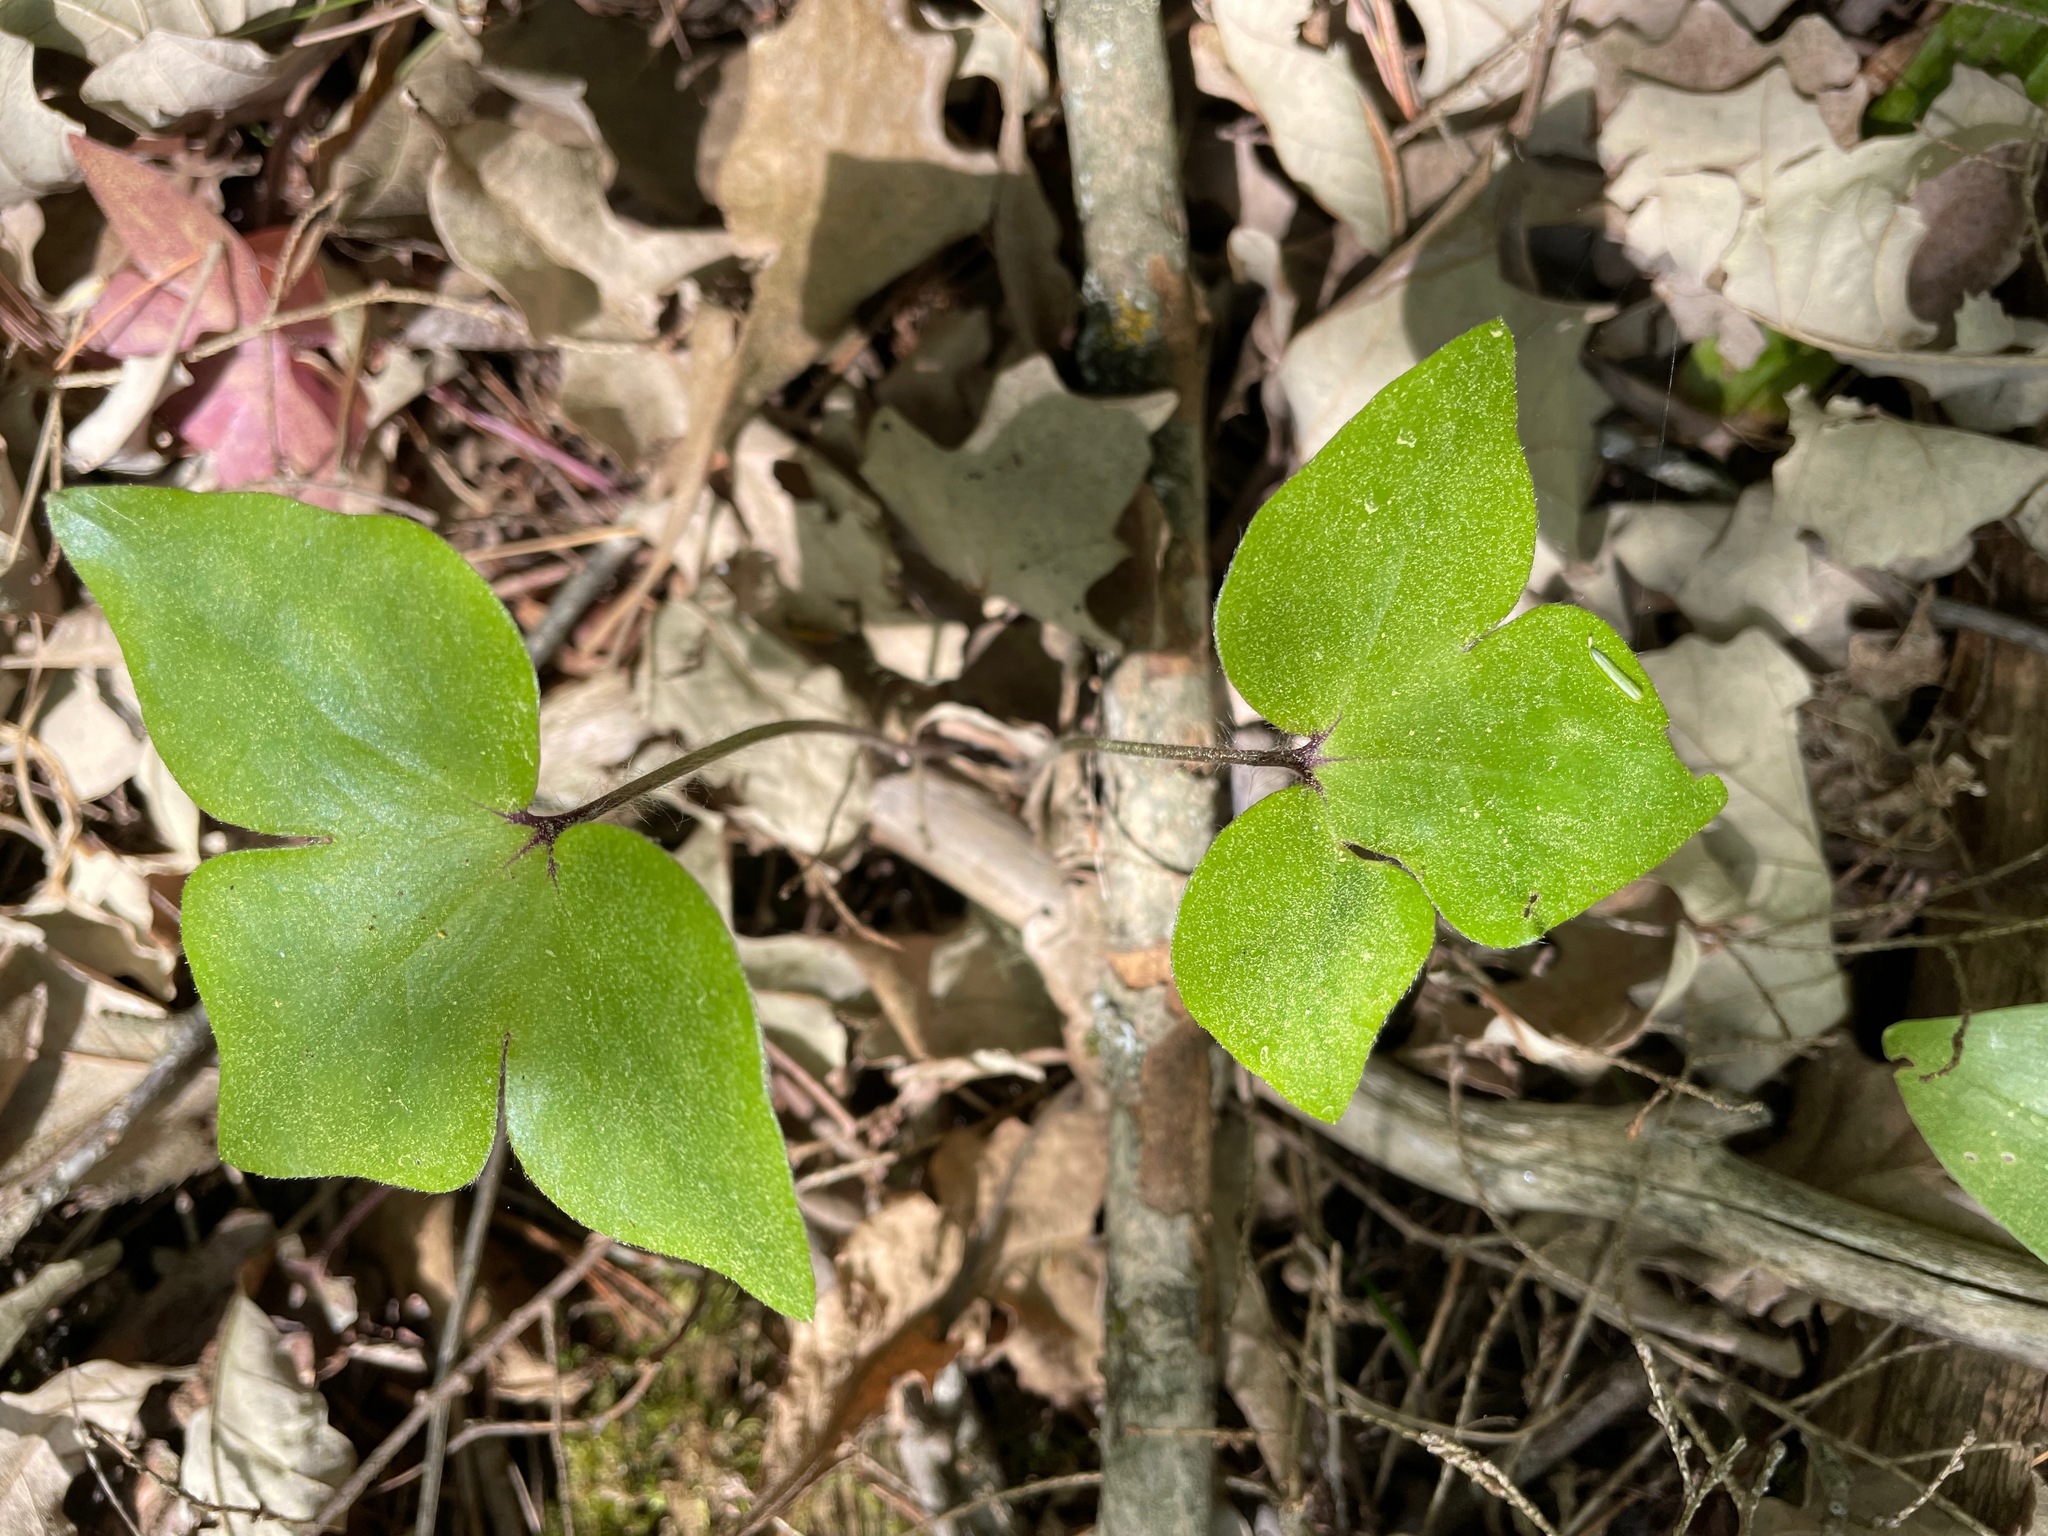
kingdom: Plantae
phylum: Tracheophyta
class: Magnoliopsida
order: Ranunculales
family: Ranunculaceae
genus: Hepatica
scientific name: Hepatica acutiloba
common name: Sharp-lobed hepatica
